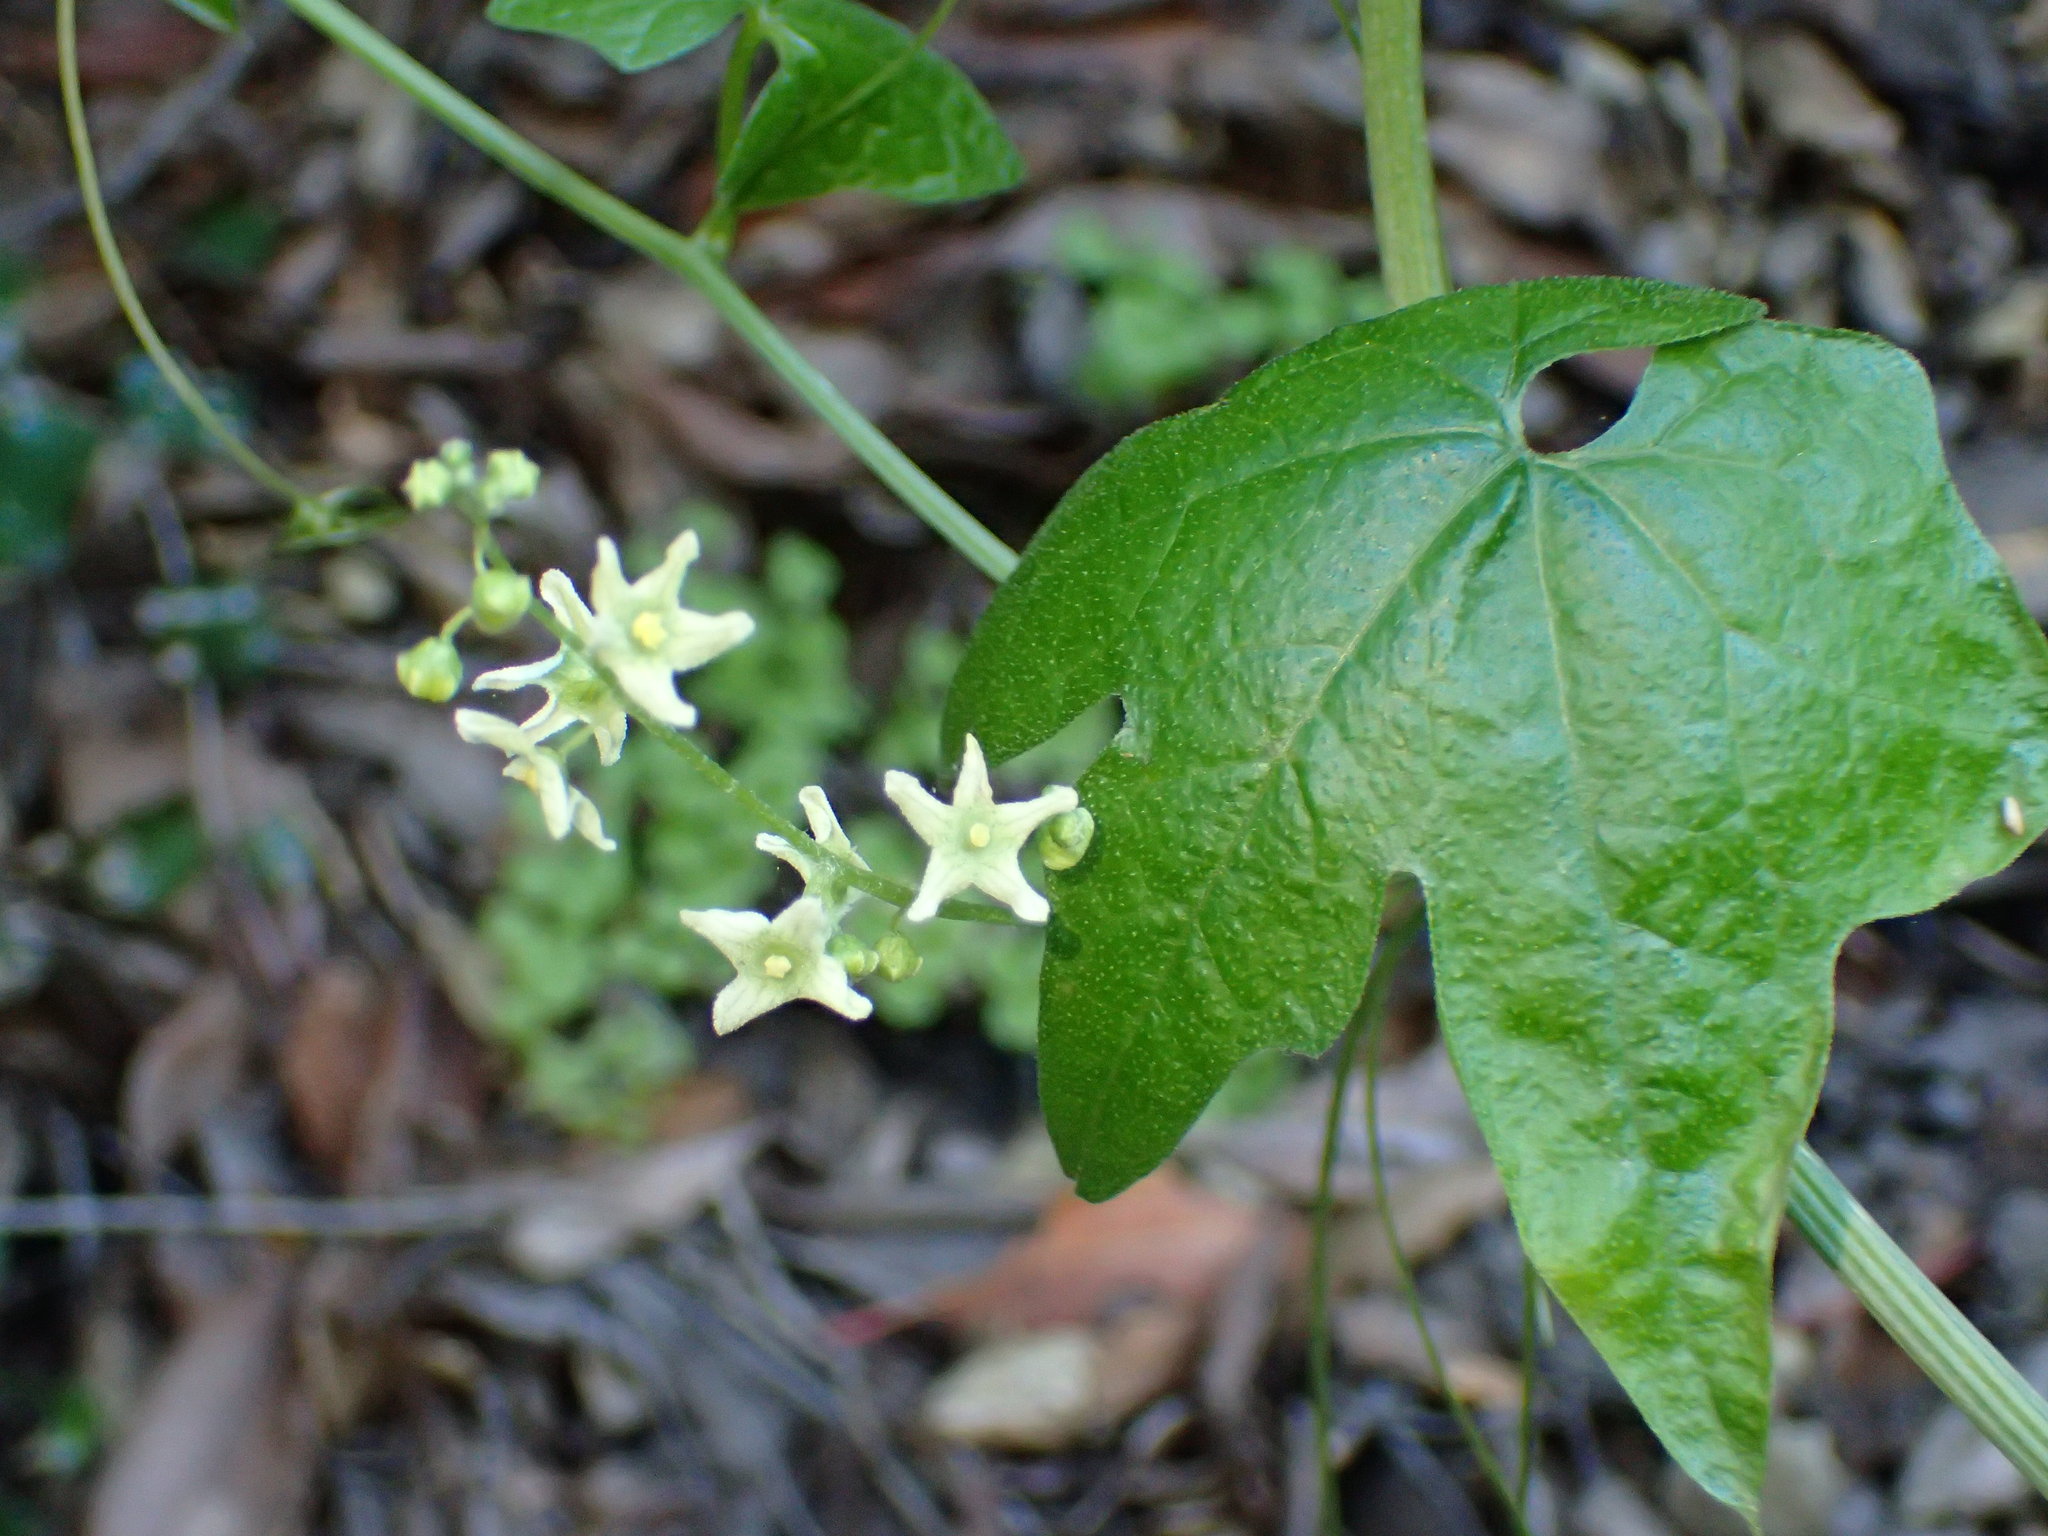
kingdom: Plantae
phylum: Tracheophyta
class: Magnoliopsida
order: Cucurbitales
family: Cucurbitaceae
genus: Marah
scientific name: Marah fabacea
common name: California manroot
